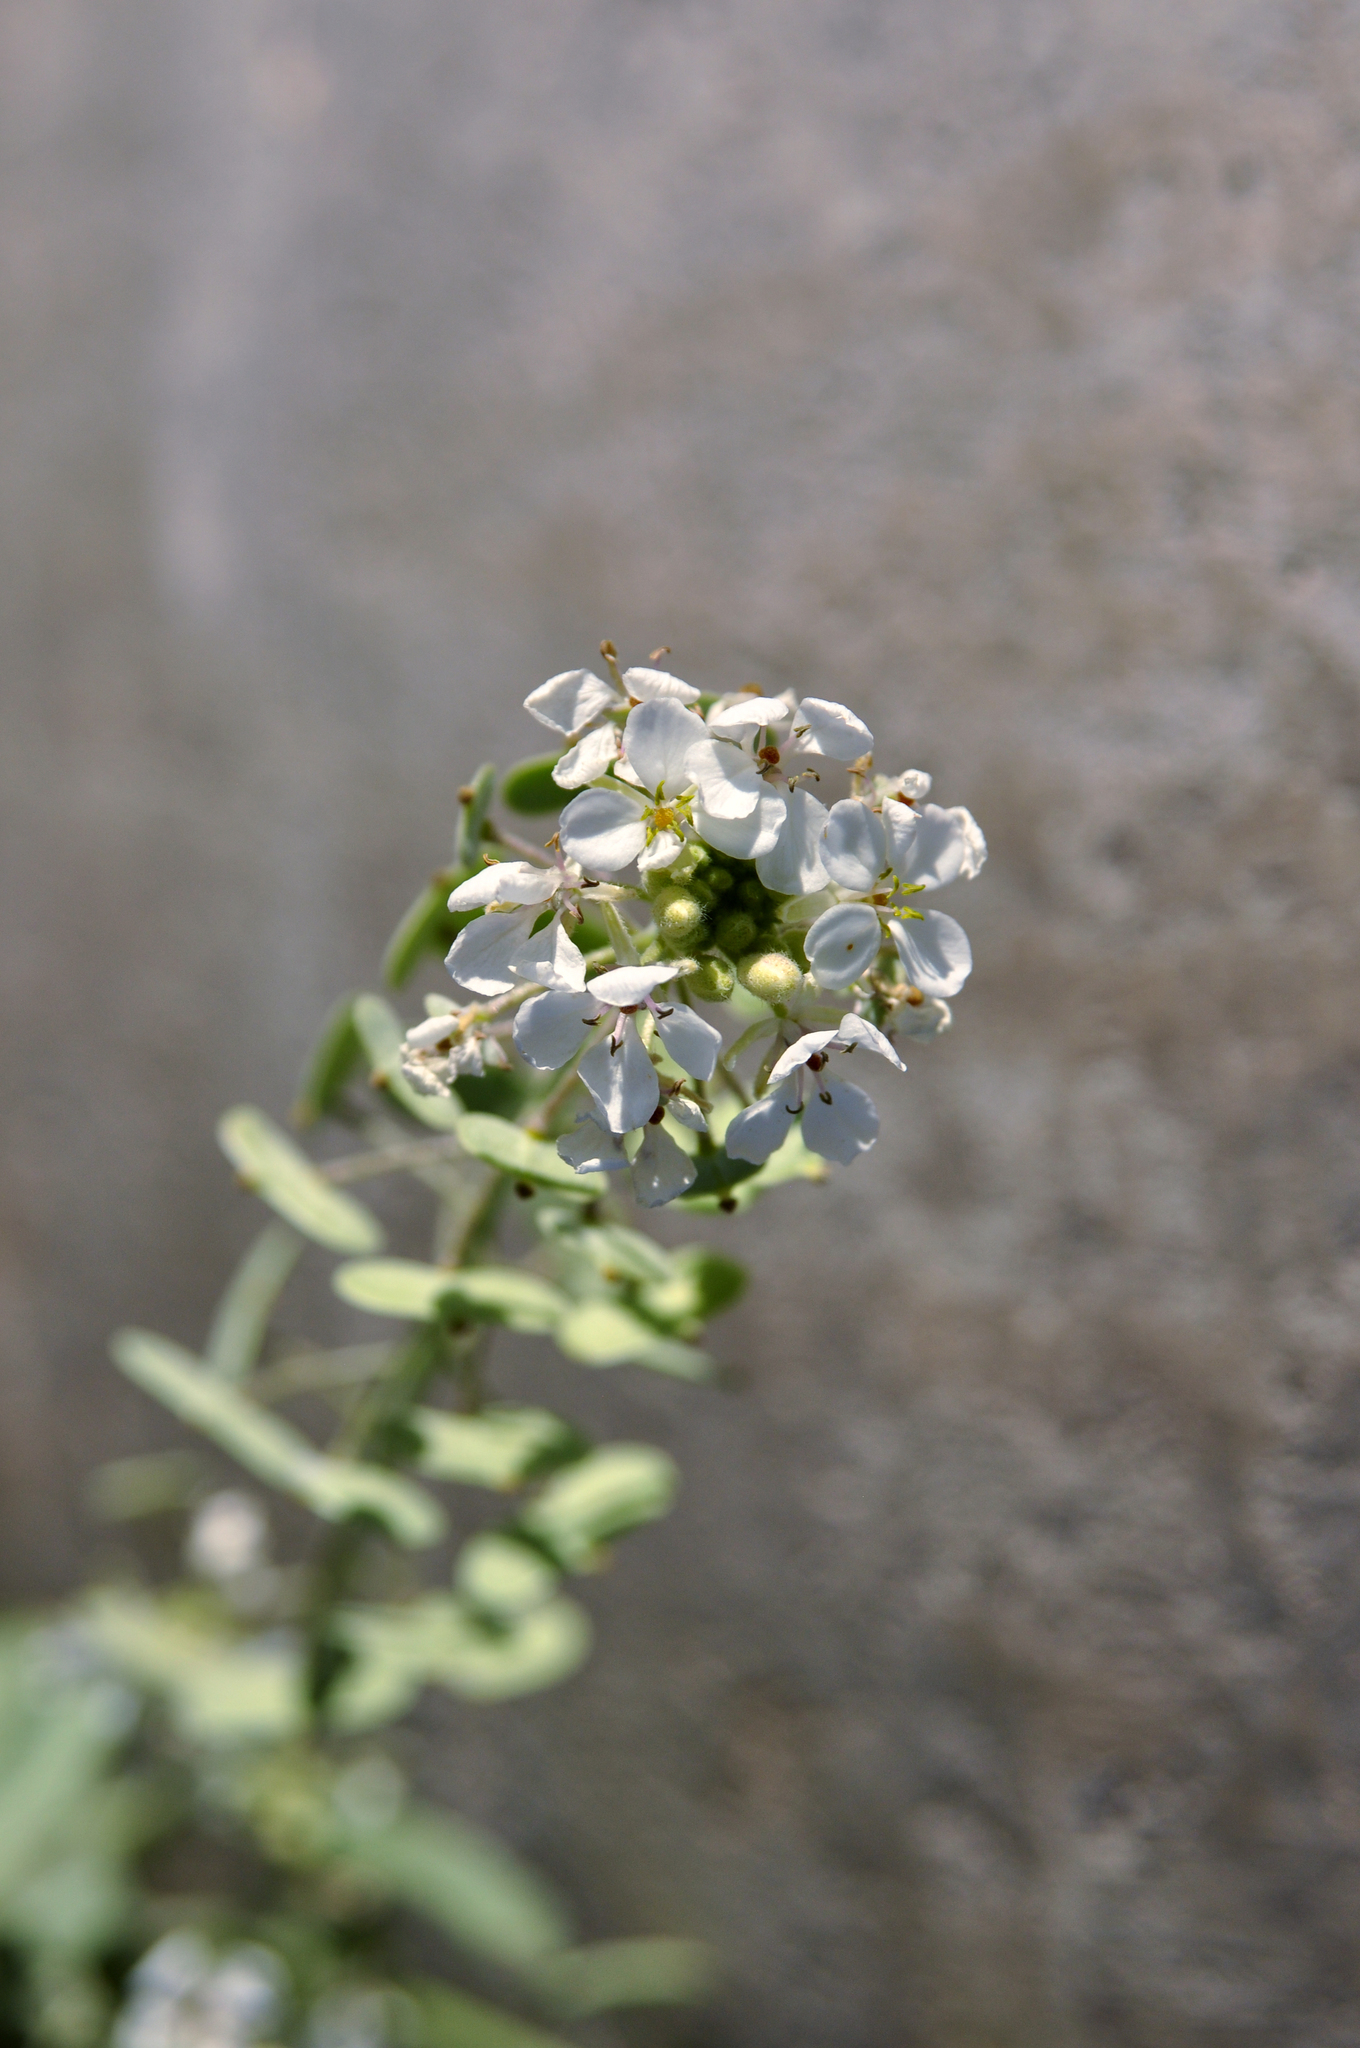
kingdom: Plantae
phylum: Tracheophyta
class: Magnoliopsida
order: Brassicales
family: Brassicaceae
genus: Dimorphocarpa
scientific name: Dimorphocarpa wislizenii
